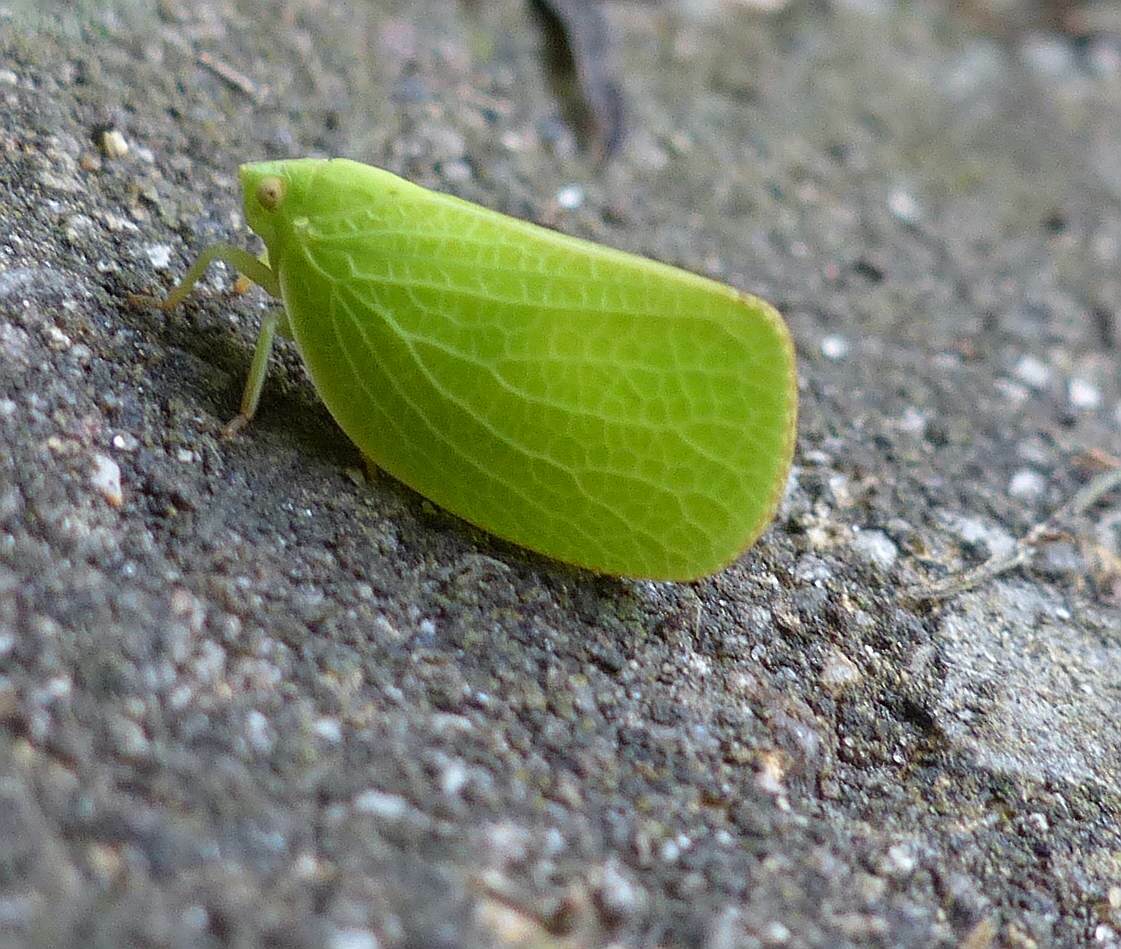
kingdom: Animalia
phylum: Arthropoda
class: Insecta
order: Hemiptera
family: Acanaloniidae
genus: Acanalonia
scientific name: Acanalonia conica
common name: Green cone-headed planthopper
